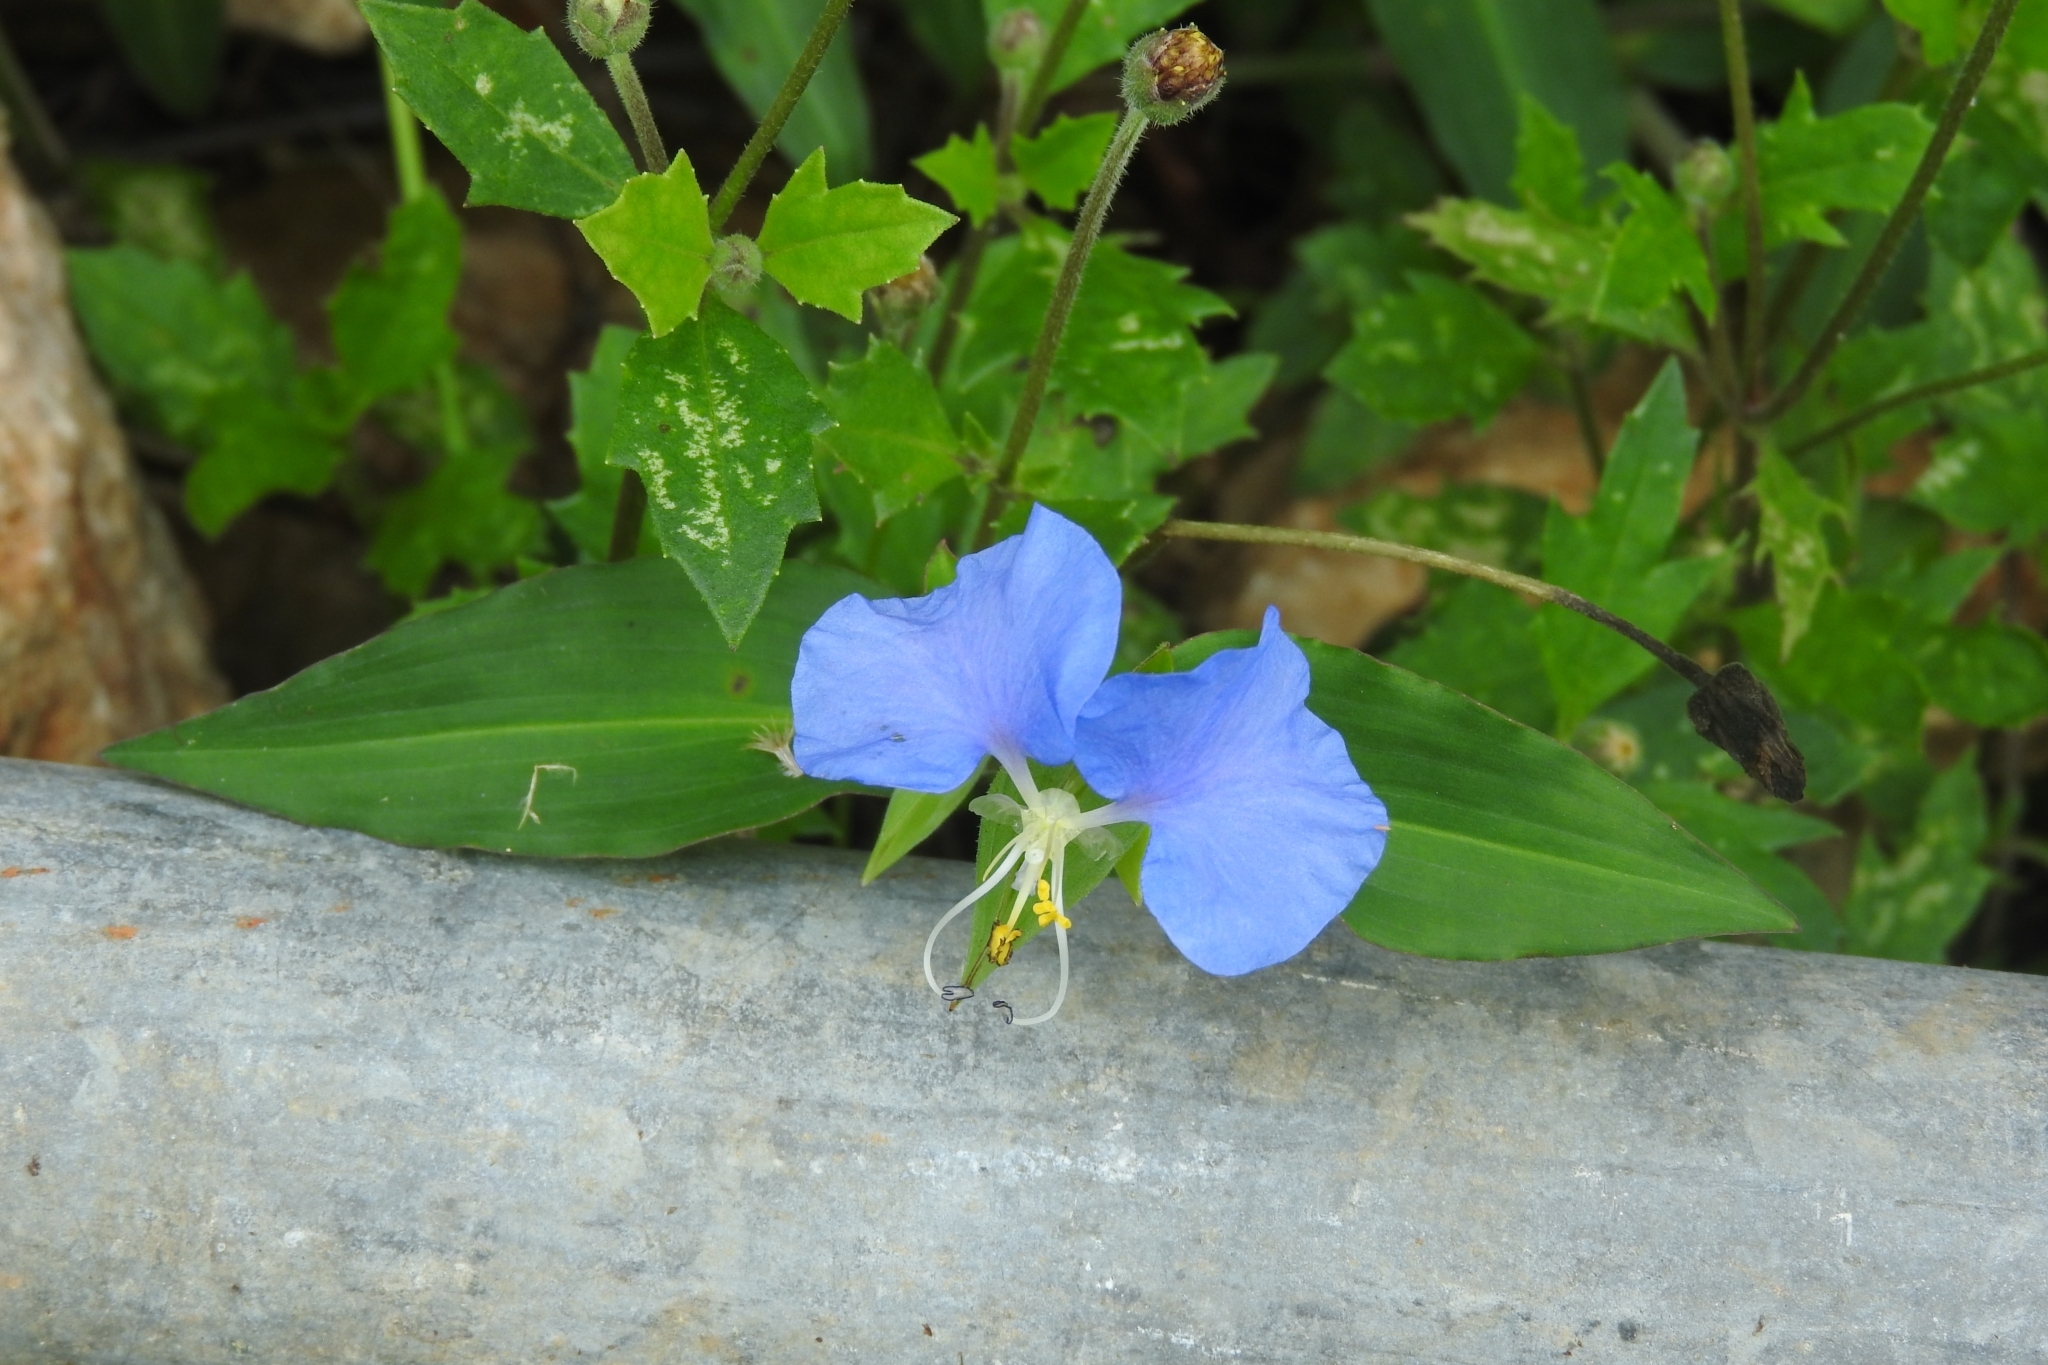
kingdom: Plantae
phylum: Tracheophyta
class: Liliopsida
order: Commelinales
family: Commelinaceae
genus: Commelina
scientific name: Commelina erecta
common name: Blousel blommetjie
